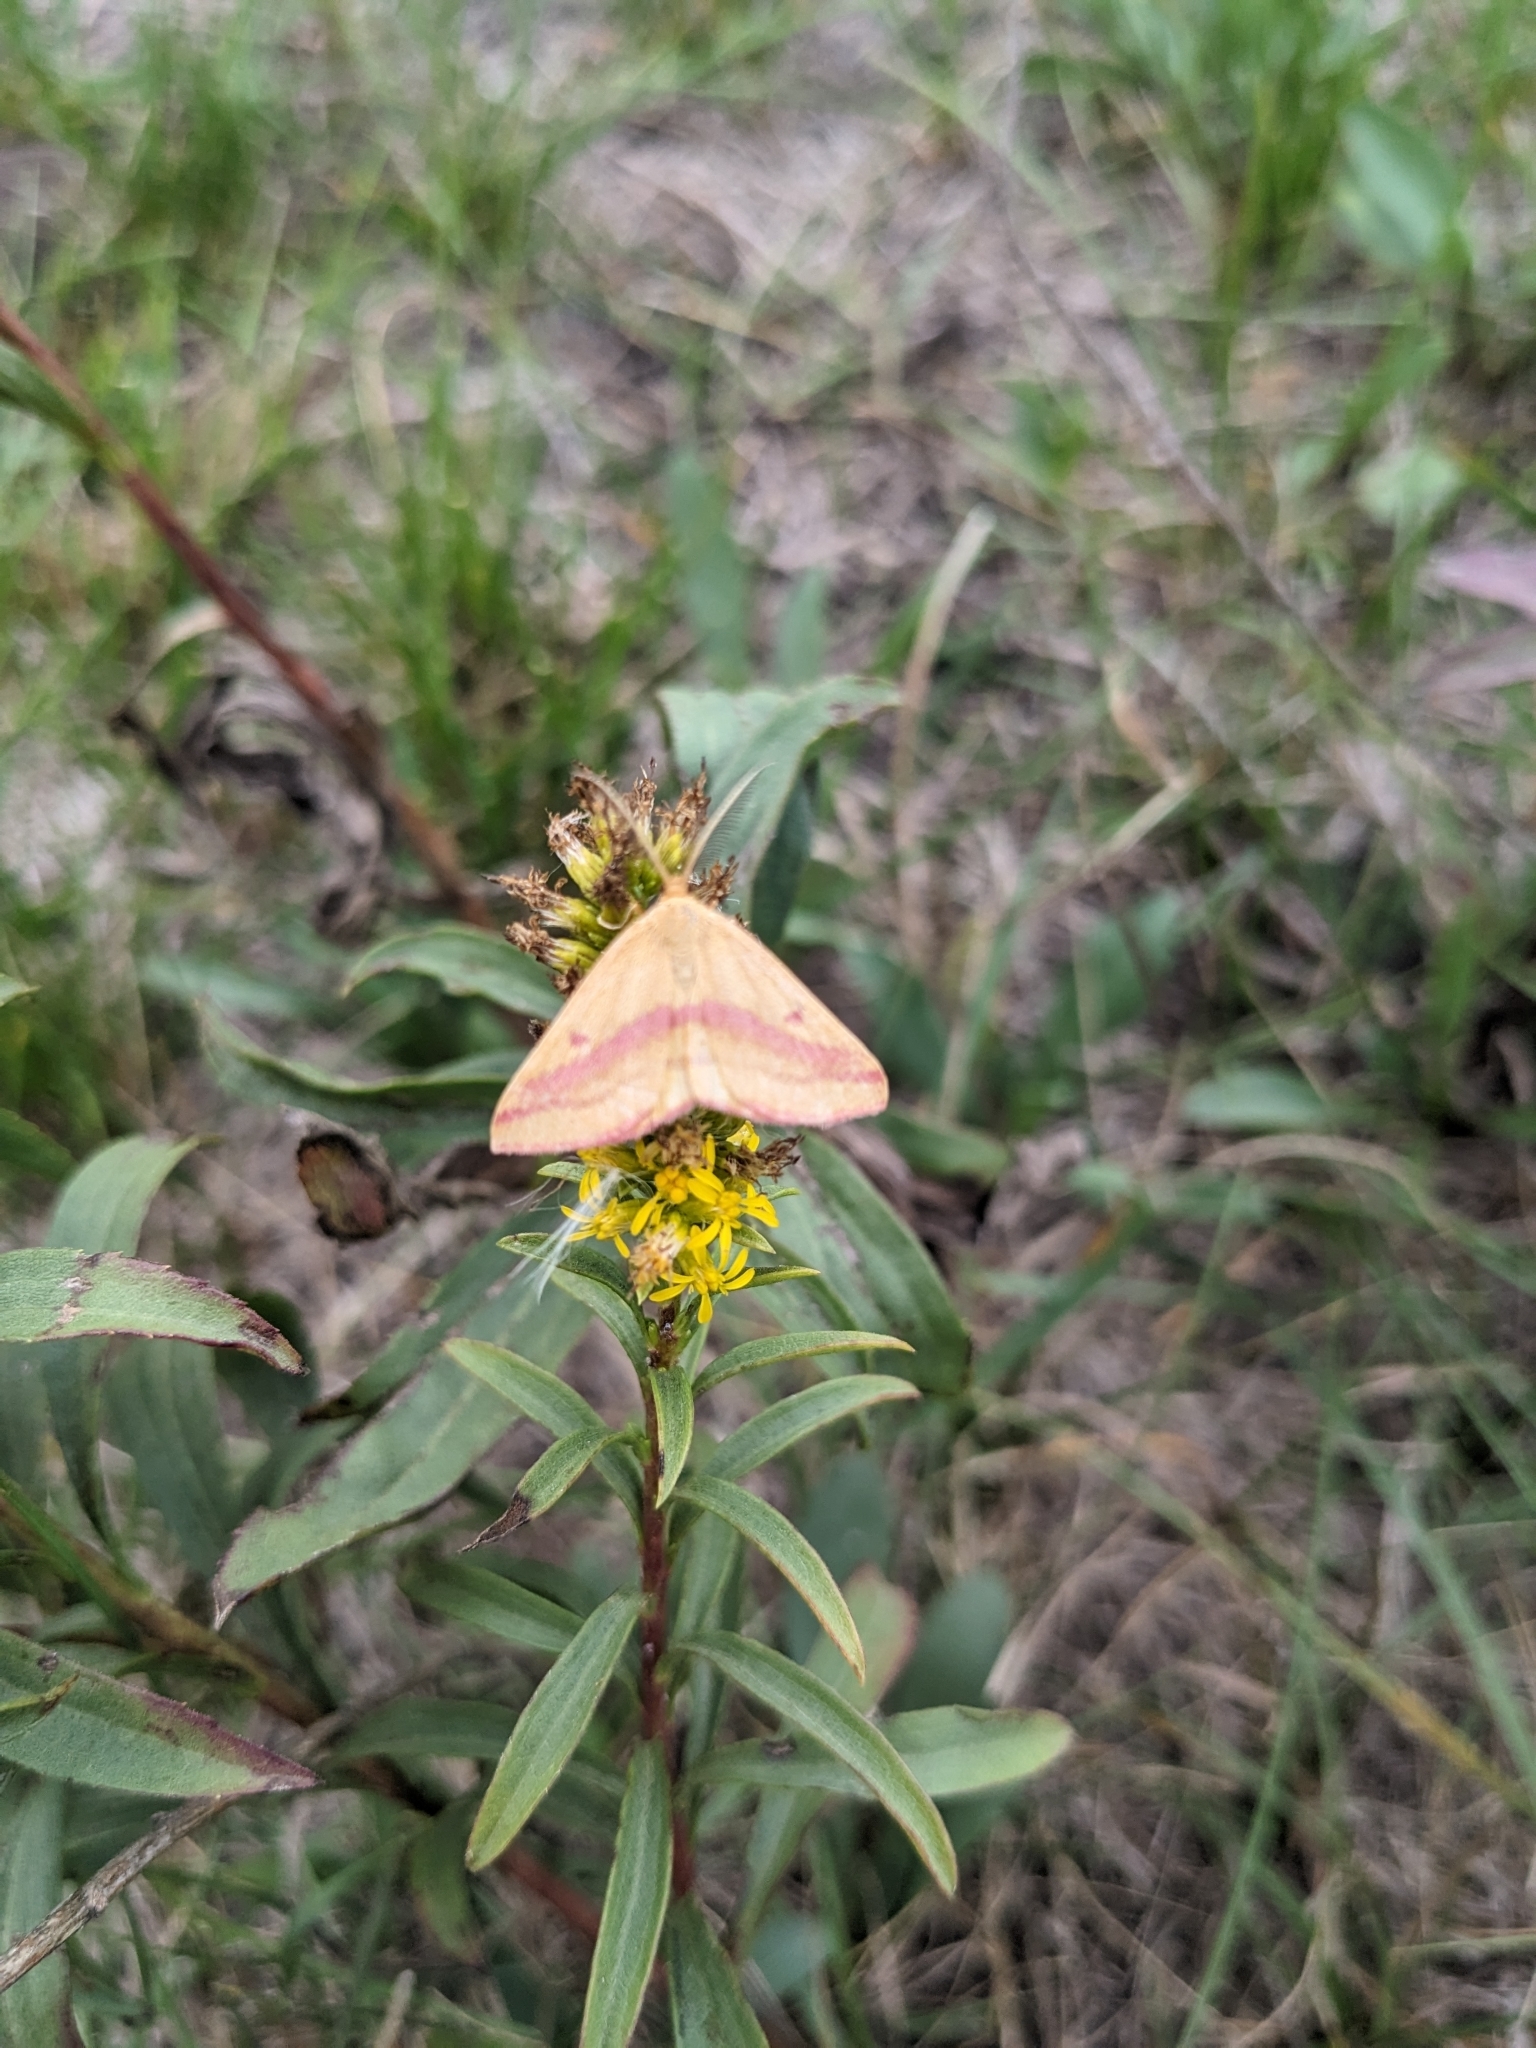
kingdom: Animalia
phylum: Arthropoda
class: Insecta
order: Lepidoptera
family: Geometridae
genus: Haematopis
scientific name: Haematopis grataria
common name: Chickweed geometer
